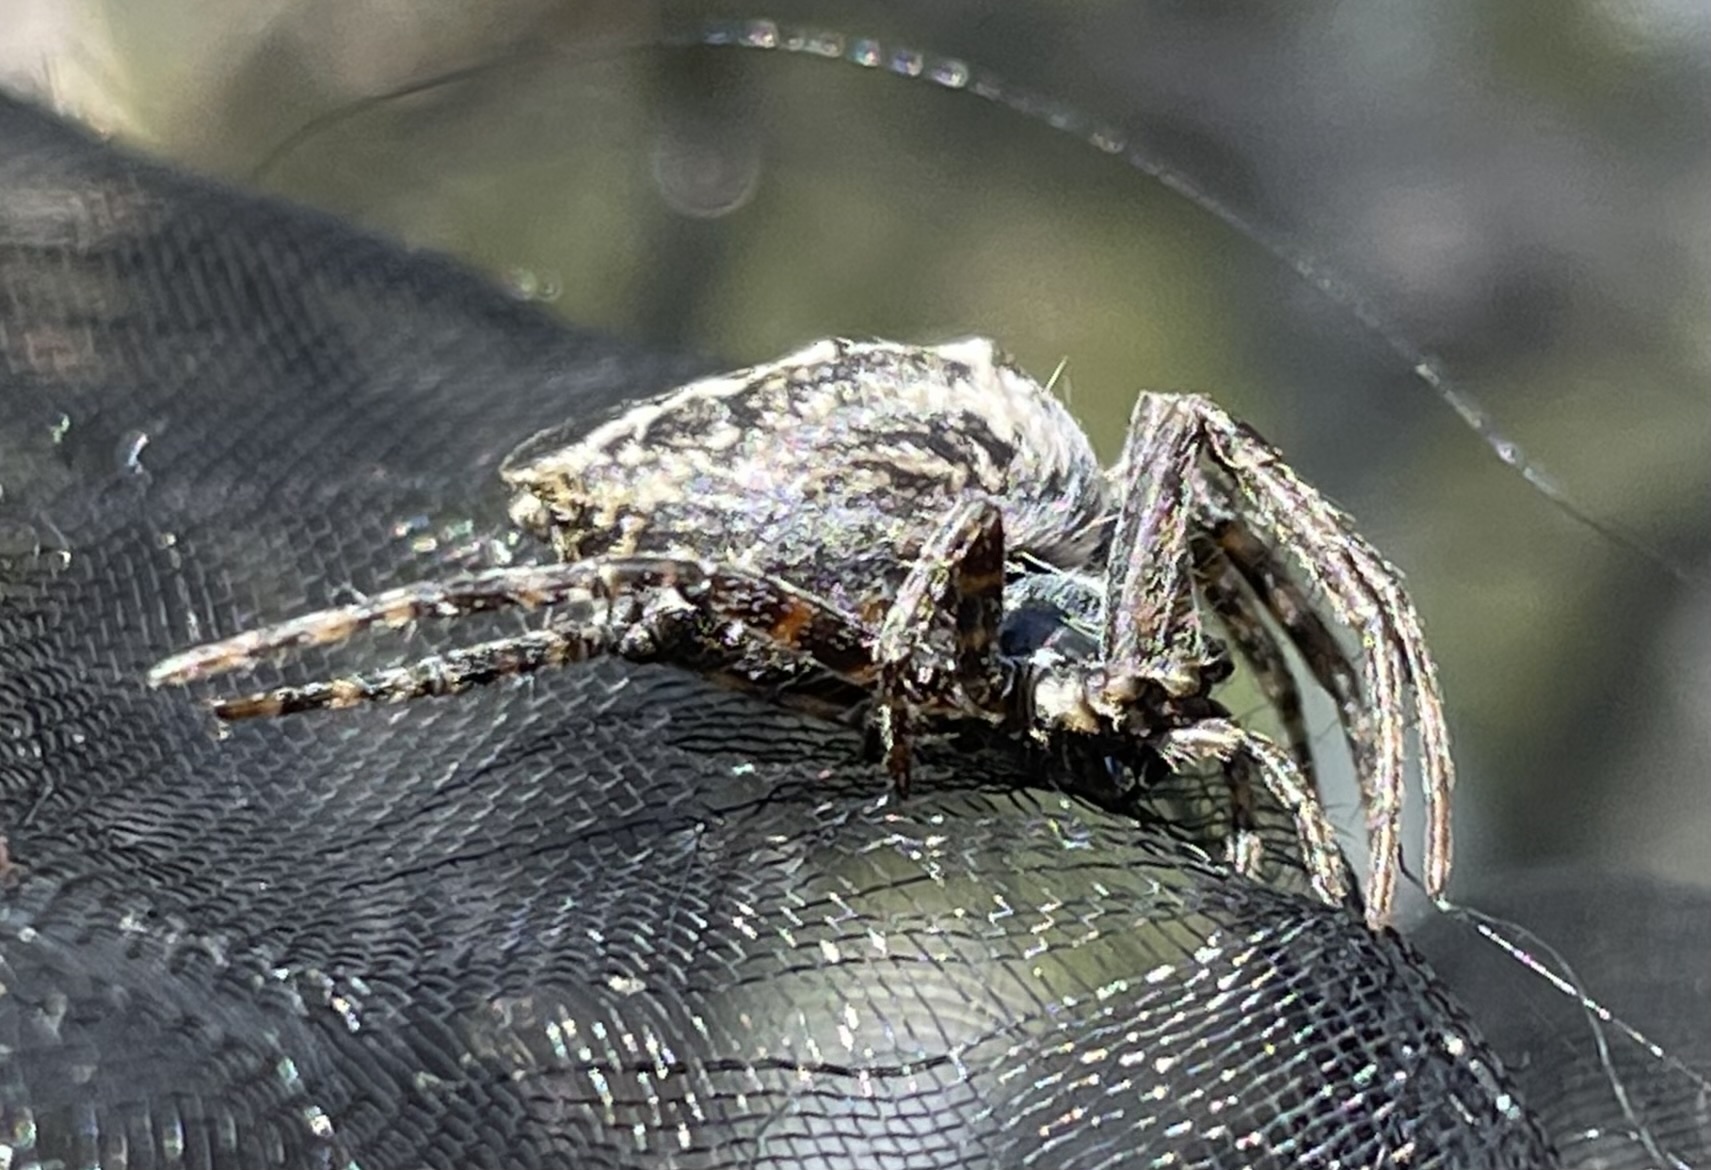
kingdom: Animalia
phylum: Arthropoda
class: Arachnida
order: Araneae
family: Araneidae
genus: Cyrtophora
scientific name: Cyrtophora citricola
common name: Orb weavers
